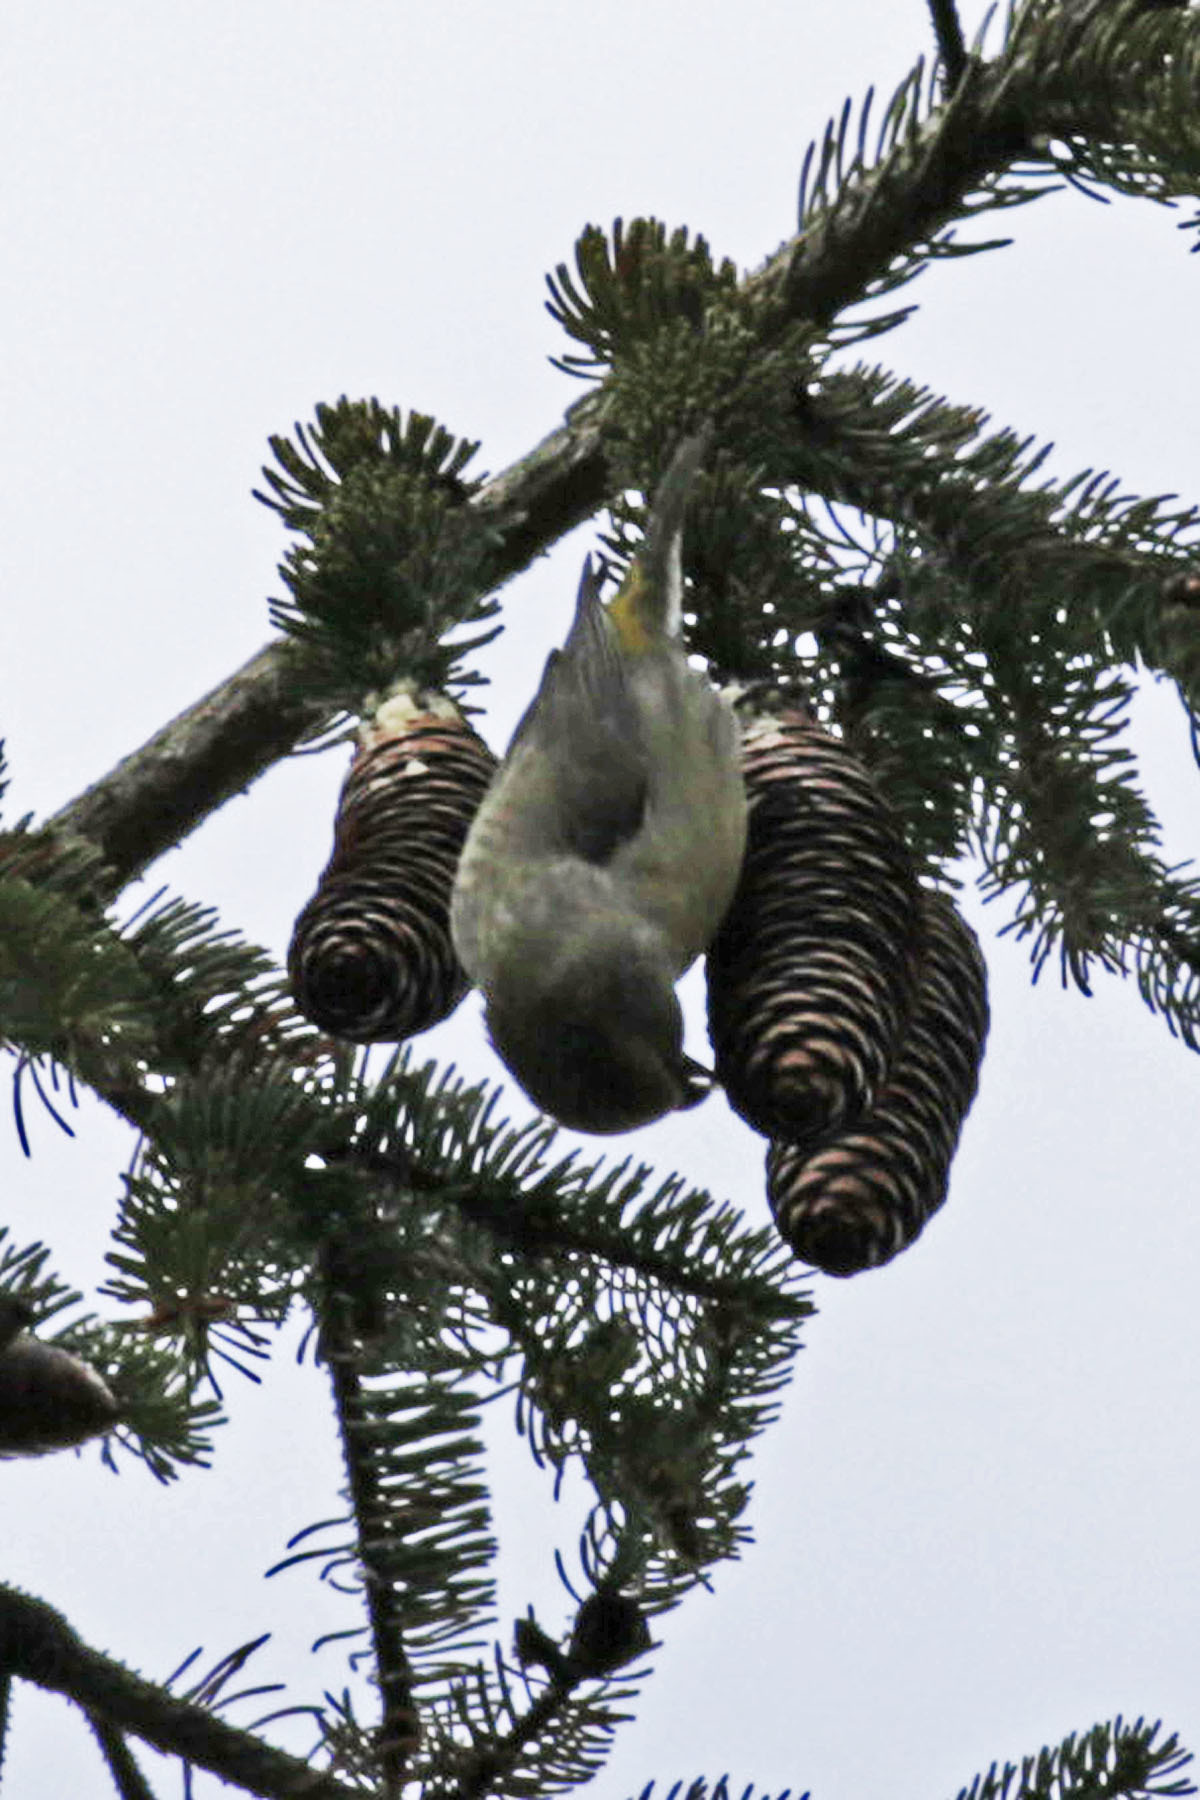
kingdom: Animalia
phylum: Chordata
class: Aves
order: Passeriformes
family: Fringillidae
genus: Loxia
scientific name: Loxia curvirostra
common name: Red crossbill
